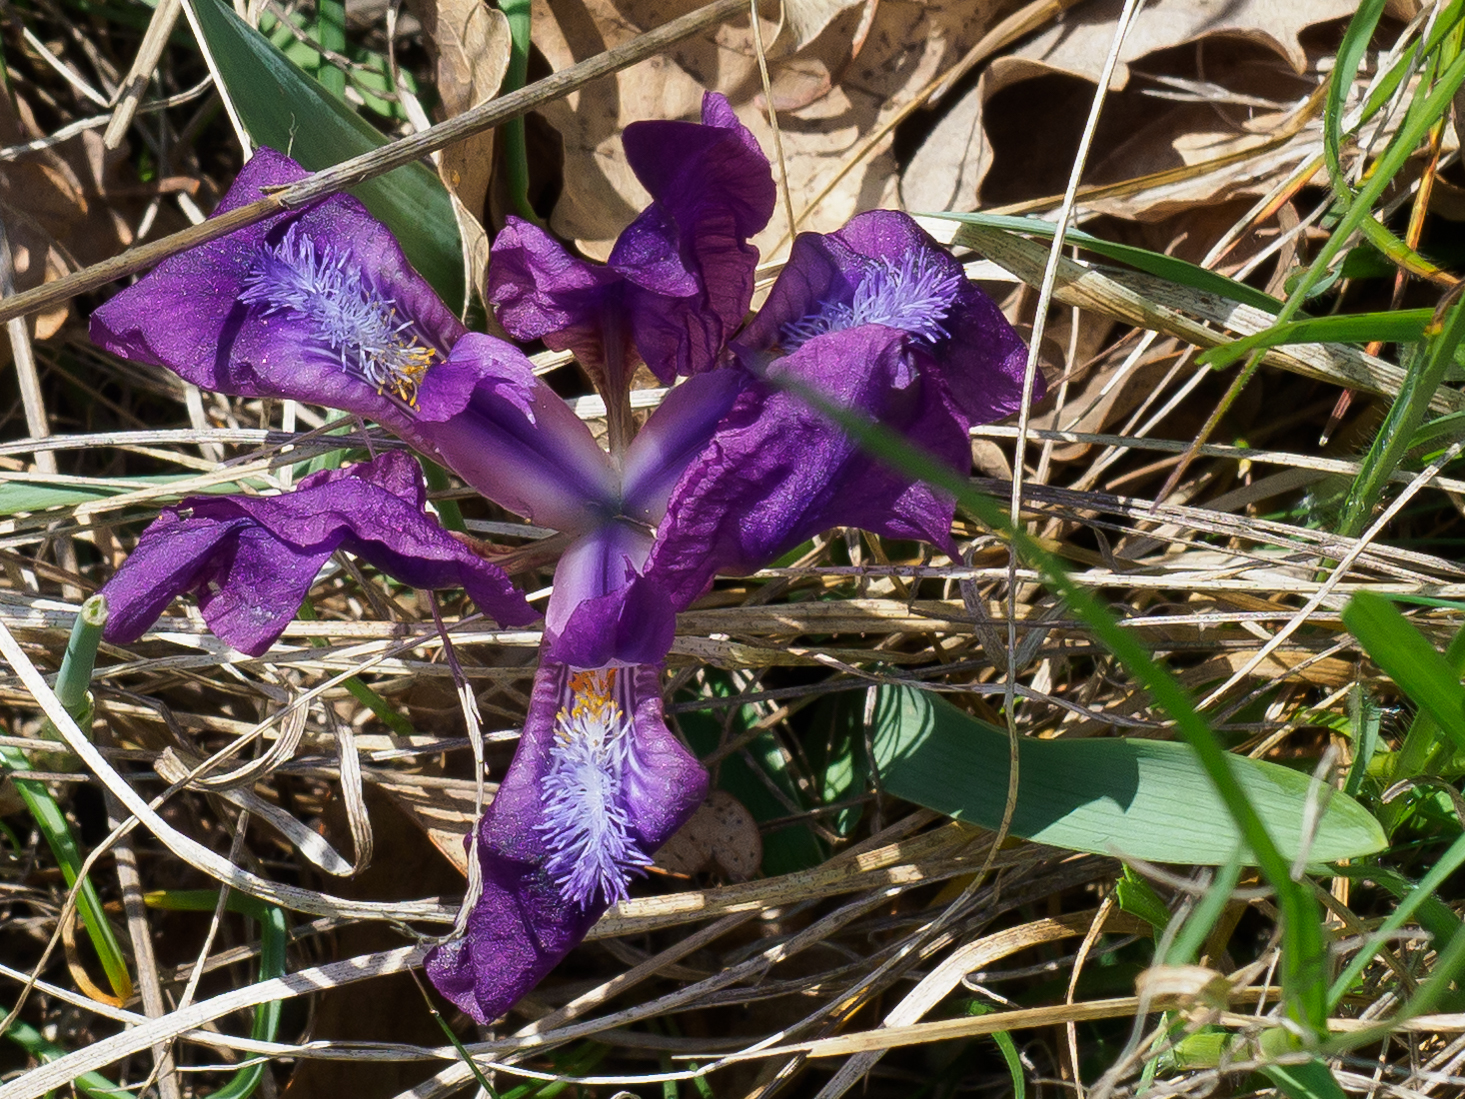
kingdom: Plantae
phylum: Tracheophyta
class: Liliopsida
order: Asparagales
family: Iridaceae
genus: Iris
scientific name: Iris pumila
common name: Dwarf iris
